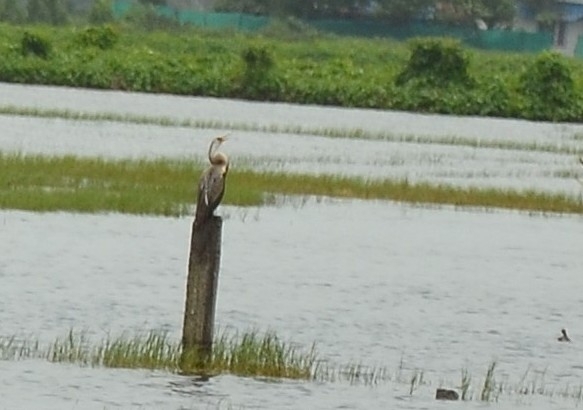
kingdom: Animalia
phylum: Chordata
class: Aves
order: Suliformes
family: Anhingidae
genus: Anhinga
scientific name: Anhinga melanogaster
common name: Oriental darter
